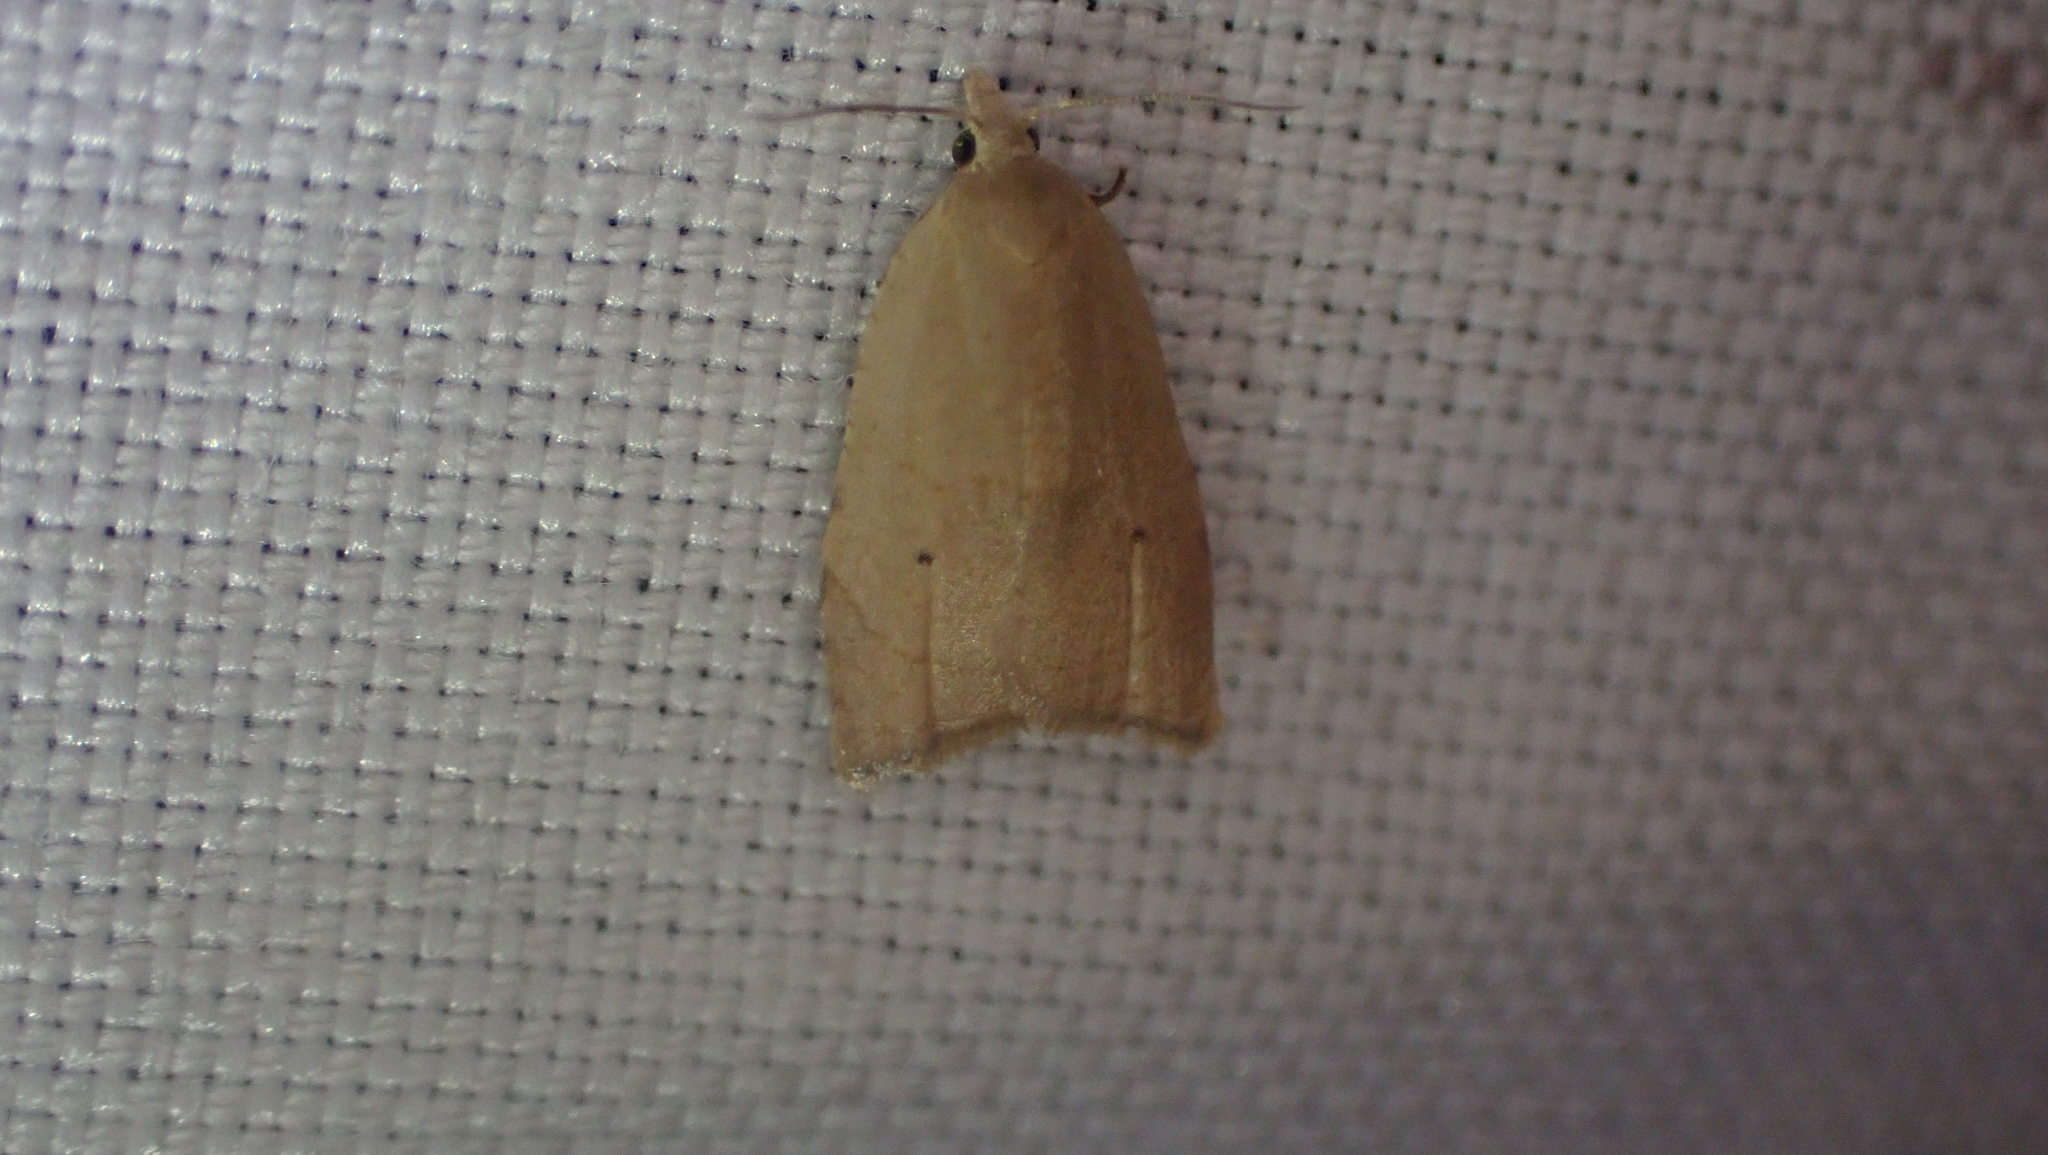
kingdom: Animalia
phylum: Arthropoda
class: Insecta
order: Lepidoptera
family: Tortricidae
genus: Coelostathma
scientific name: Coelostathma discopunctana
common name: Batman moth
